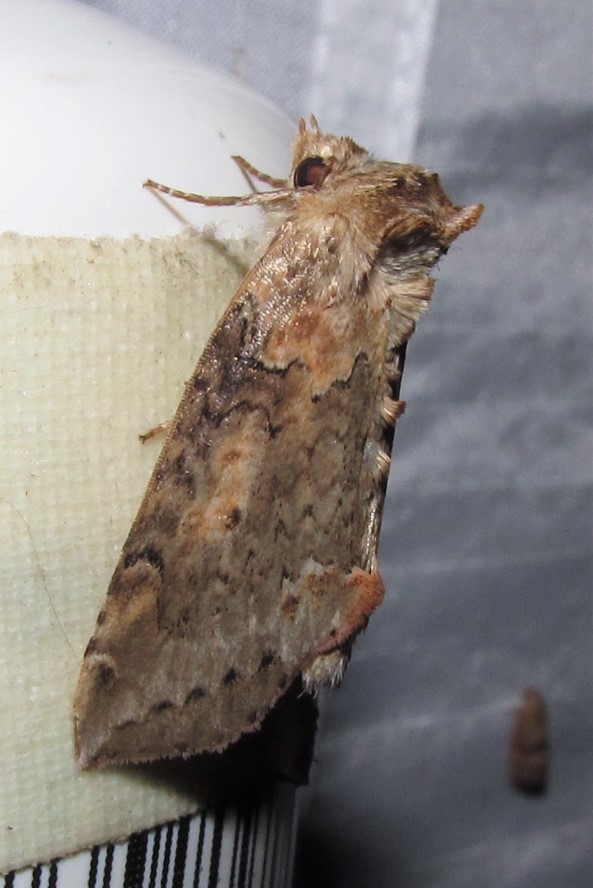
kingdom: Animalia
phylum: Arthropoda
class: Insecta
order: Lepidoptera
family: Drepanidae
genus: Pseudothyatira
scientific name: Pseudothyatira cymatophoroides
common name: Tufted thyatirid moth
